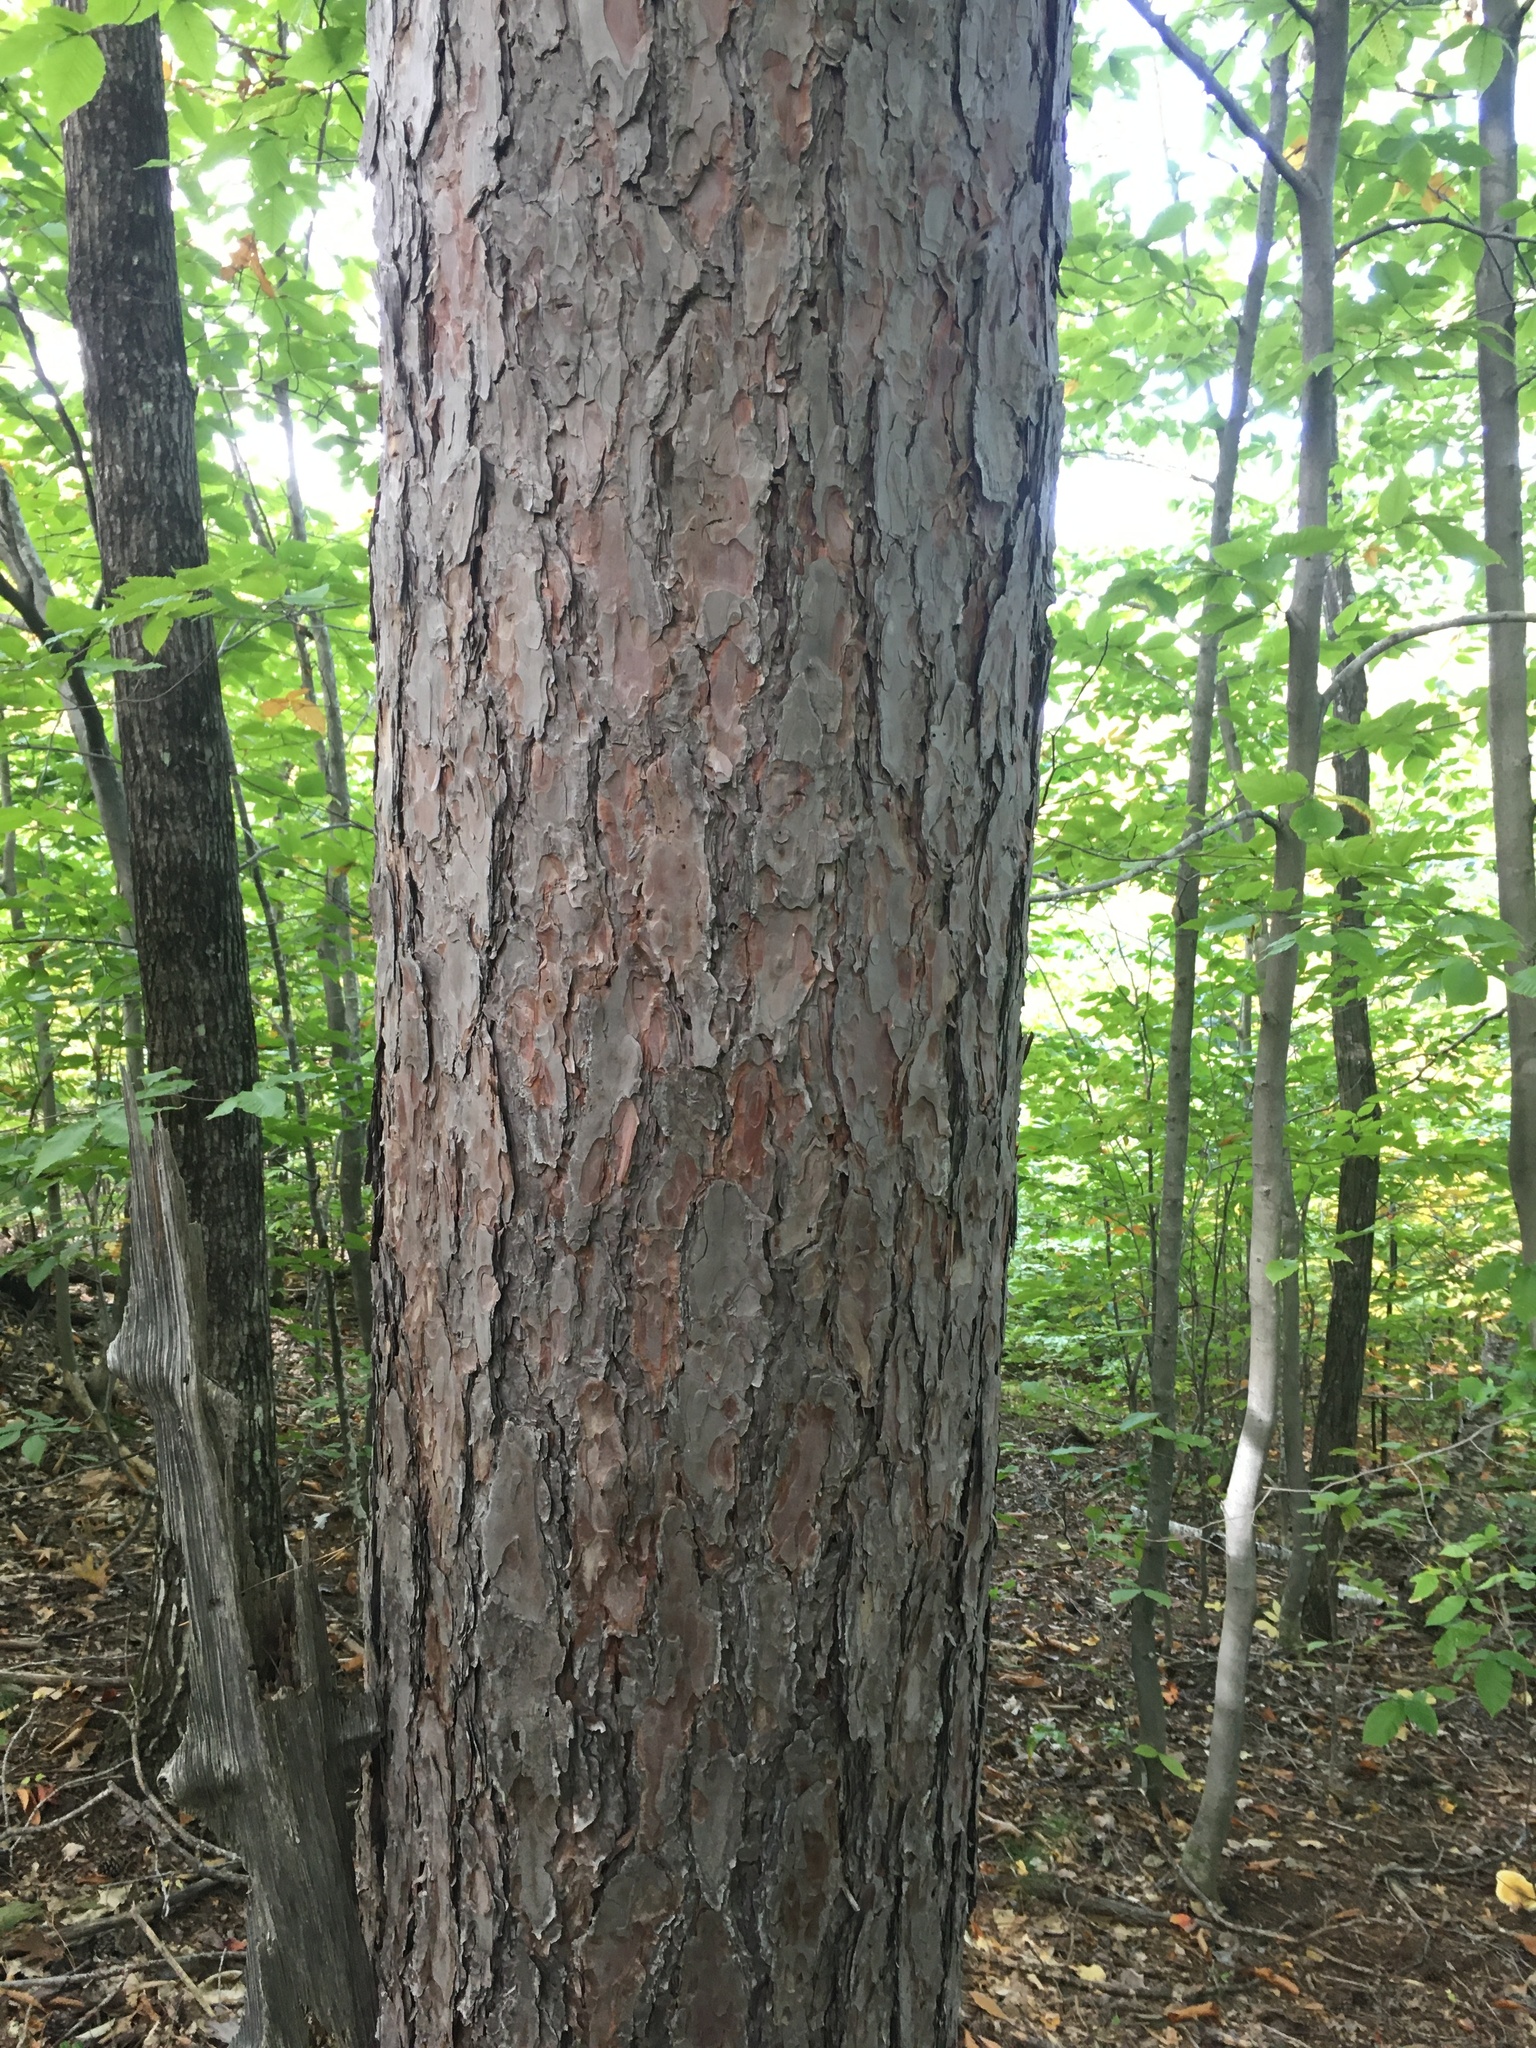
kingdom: Plantae
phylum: Tracheophyta
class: Pinopsida
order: Pinales
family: Pinaceae
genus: Pinus
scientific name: Pinus resinosa
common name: Norway pine
